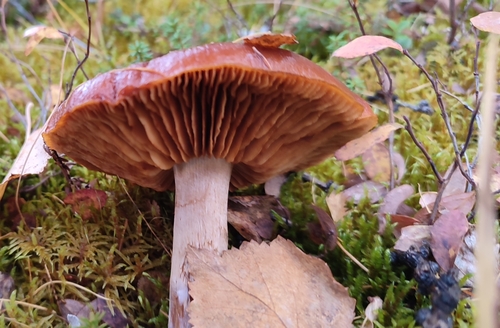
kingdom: Fungi
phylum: Basidiomycota
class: Agaricomycetes
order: Agaricales
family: Cortinariaceae
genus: Cortinarius
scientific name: Cortinarius
